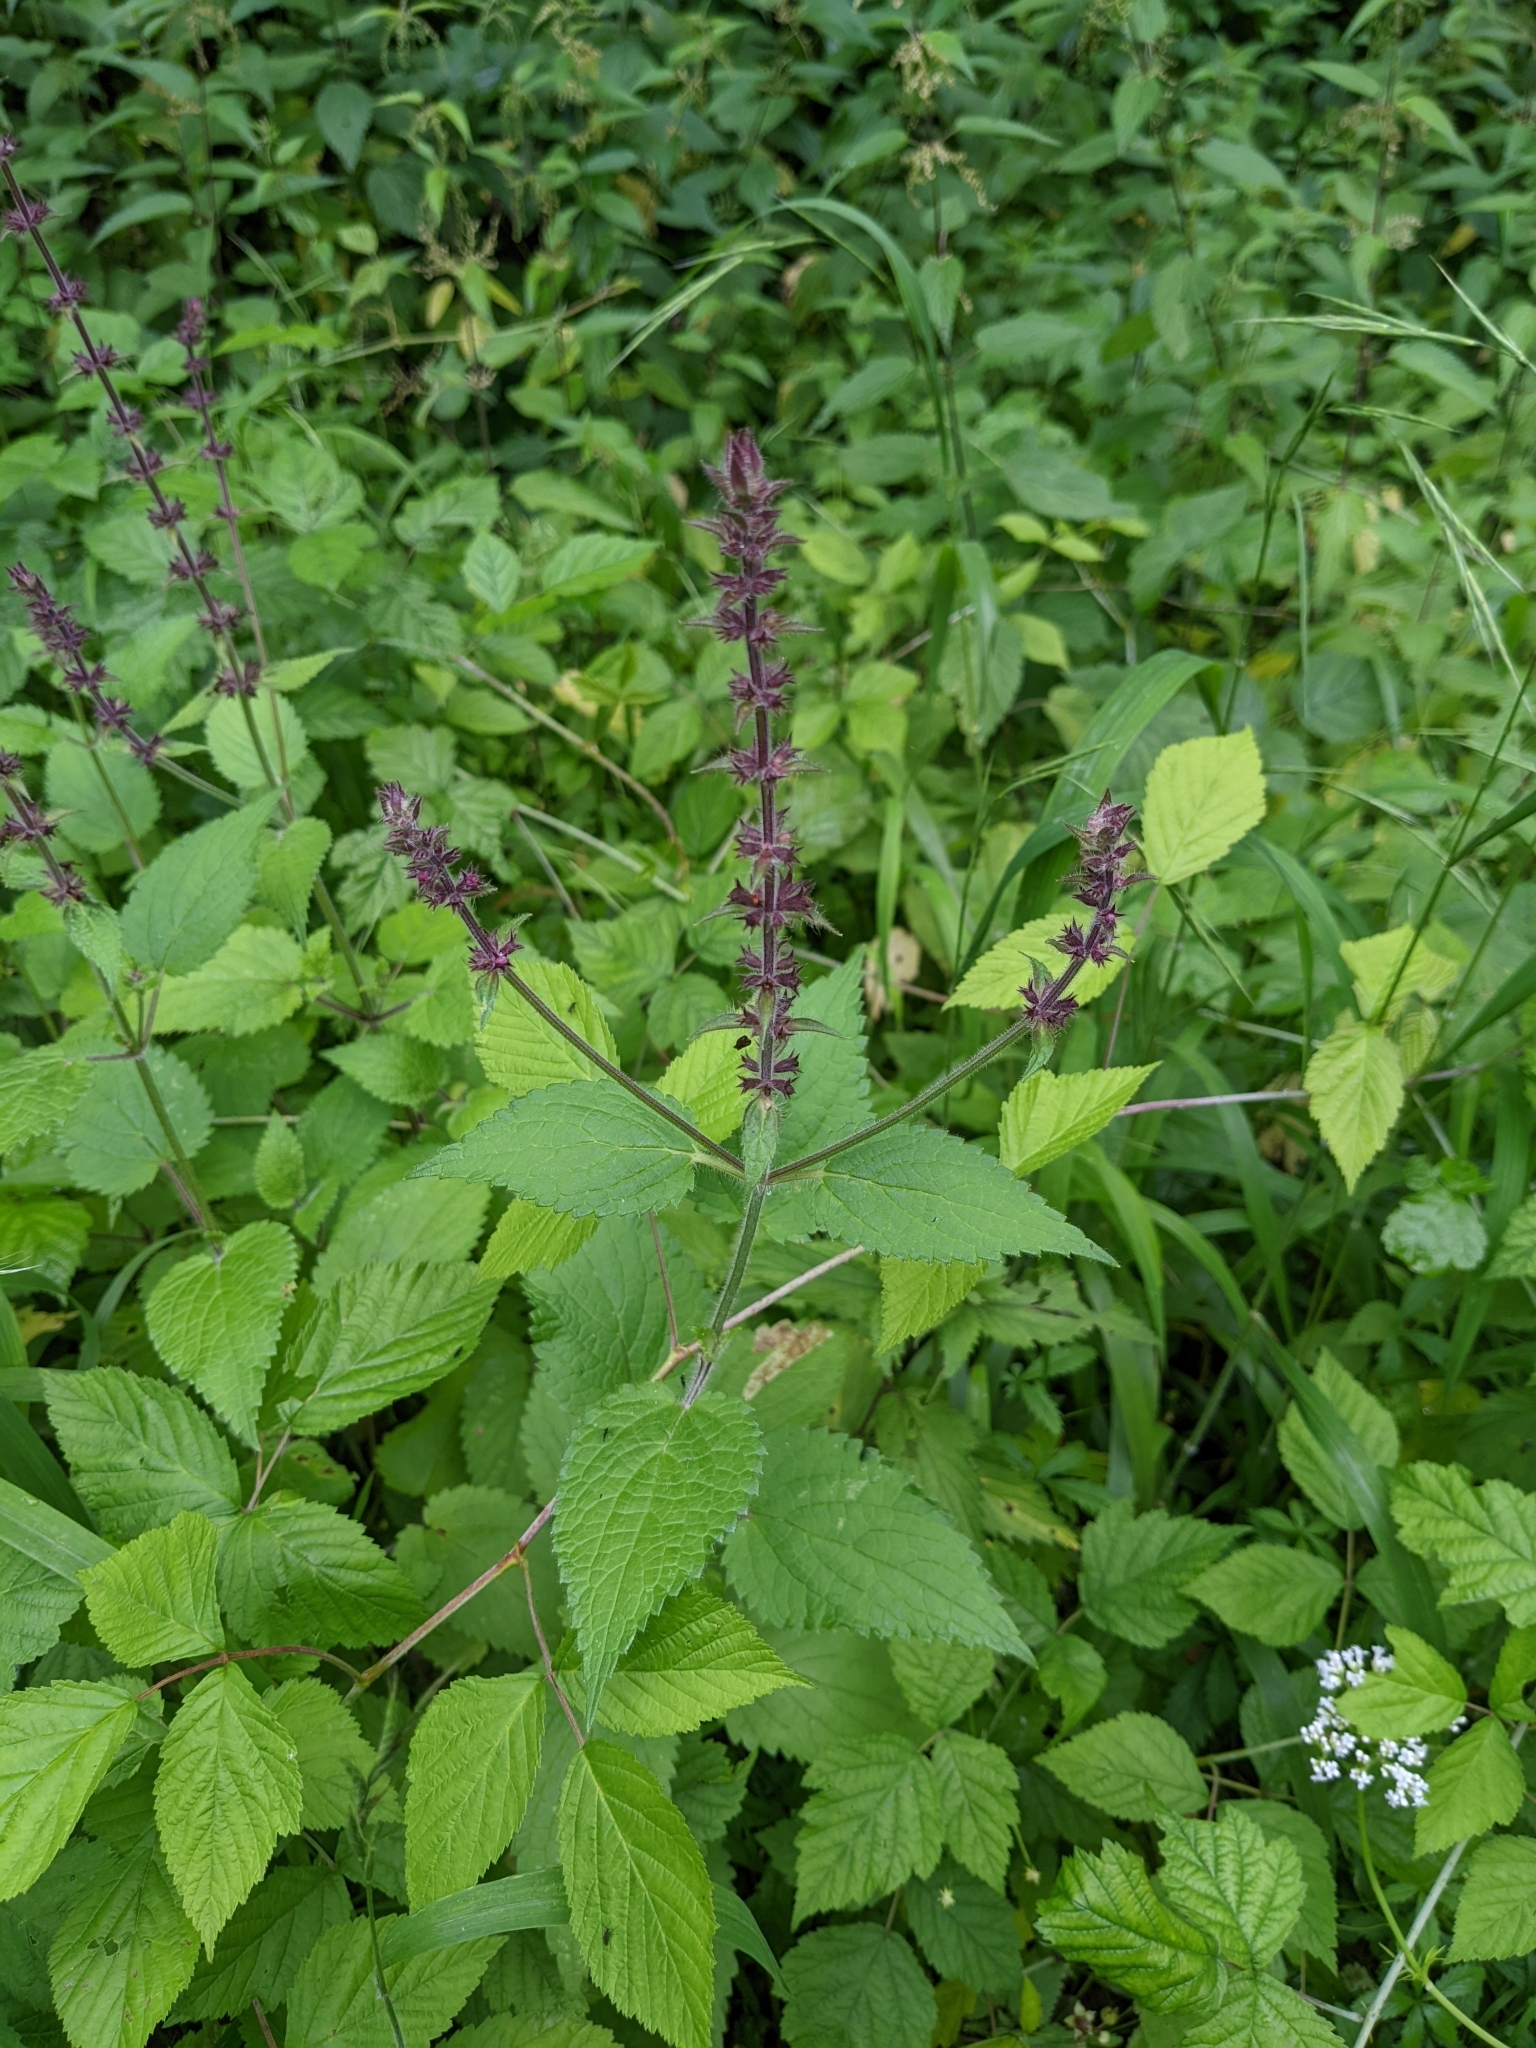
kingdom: Plantae
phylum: Tracheophyta
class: Magnoliopsida
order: Lamiales
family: Lamiaceae
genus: Stachys
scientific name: Stachys sylvatica
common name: Hedge woundwort
